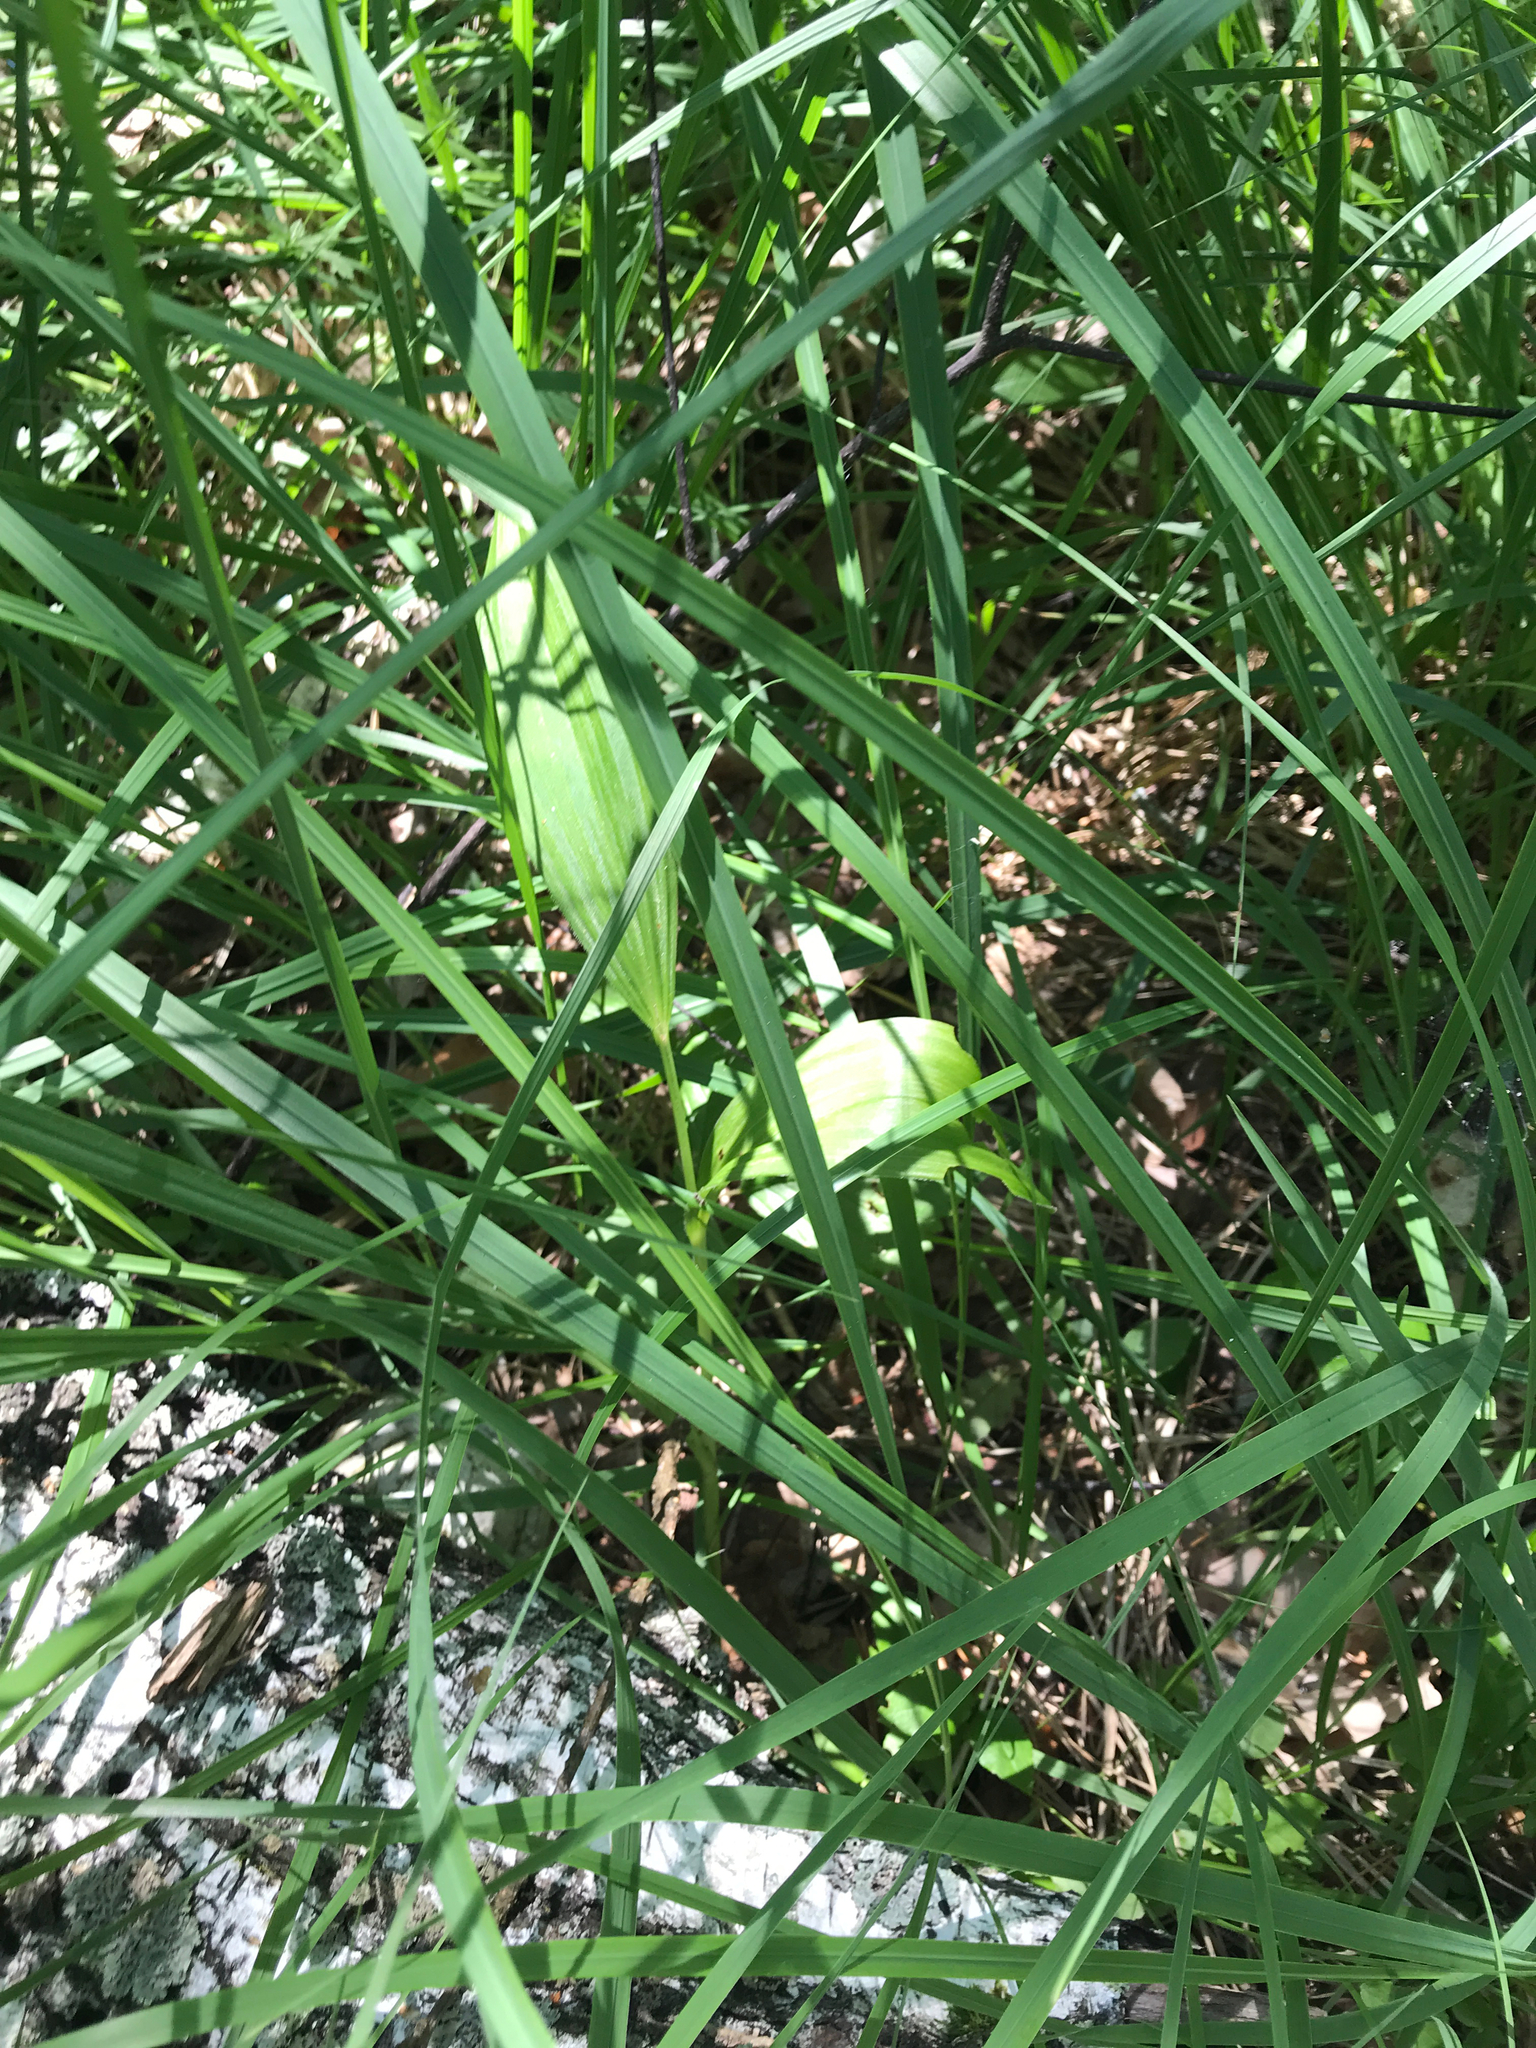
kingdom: Plantae
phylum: Tracheophyta
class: Liliopsida
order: Liliales
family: Melanthiaceae
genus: Veratrum
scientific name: Veratrum lobelianum
